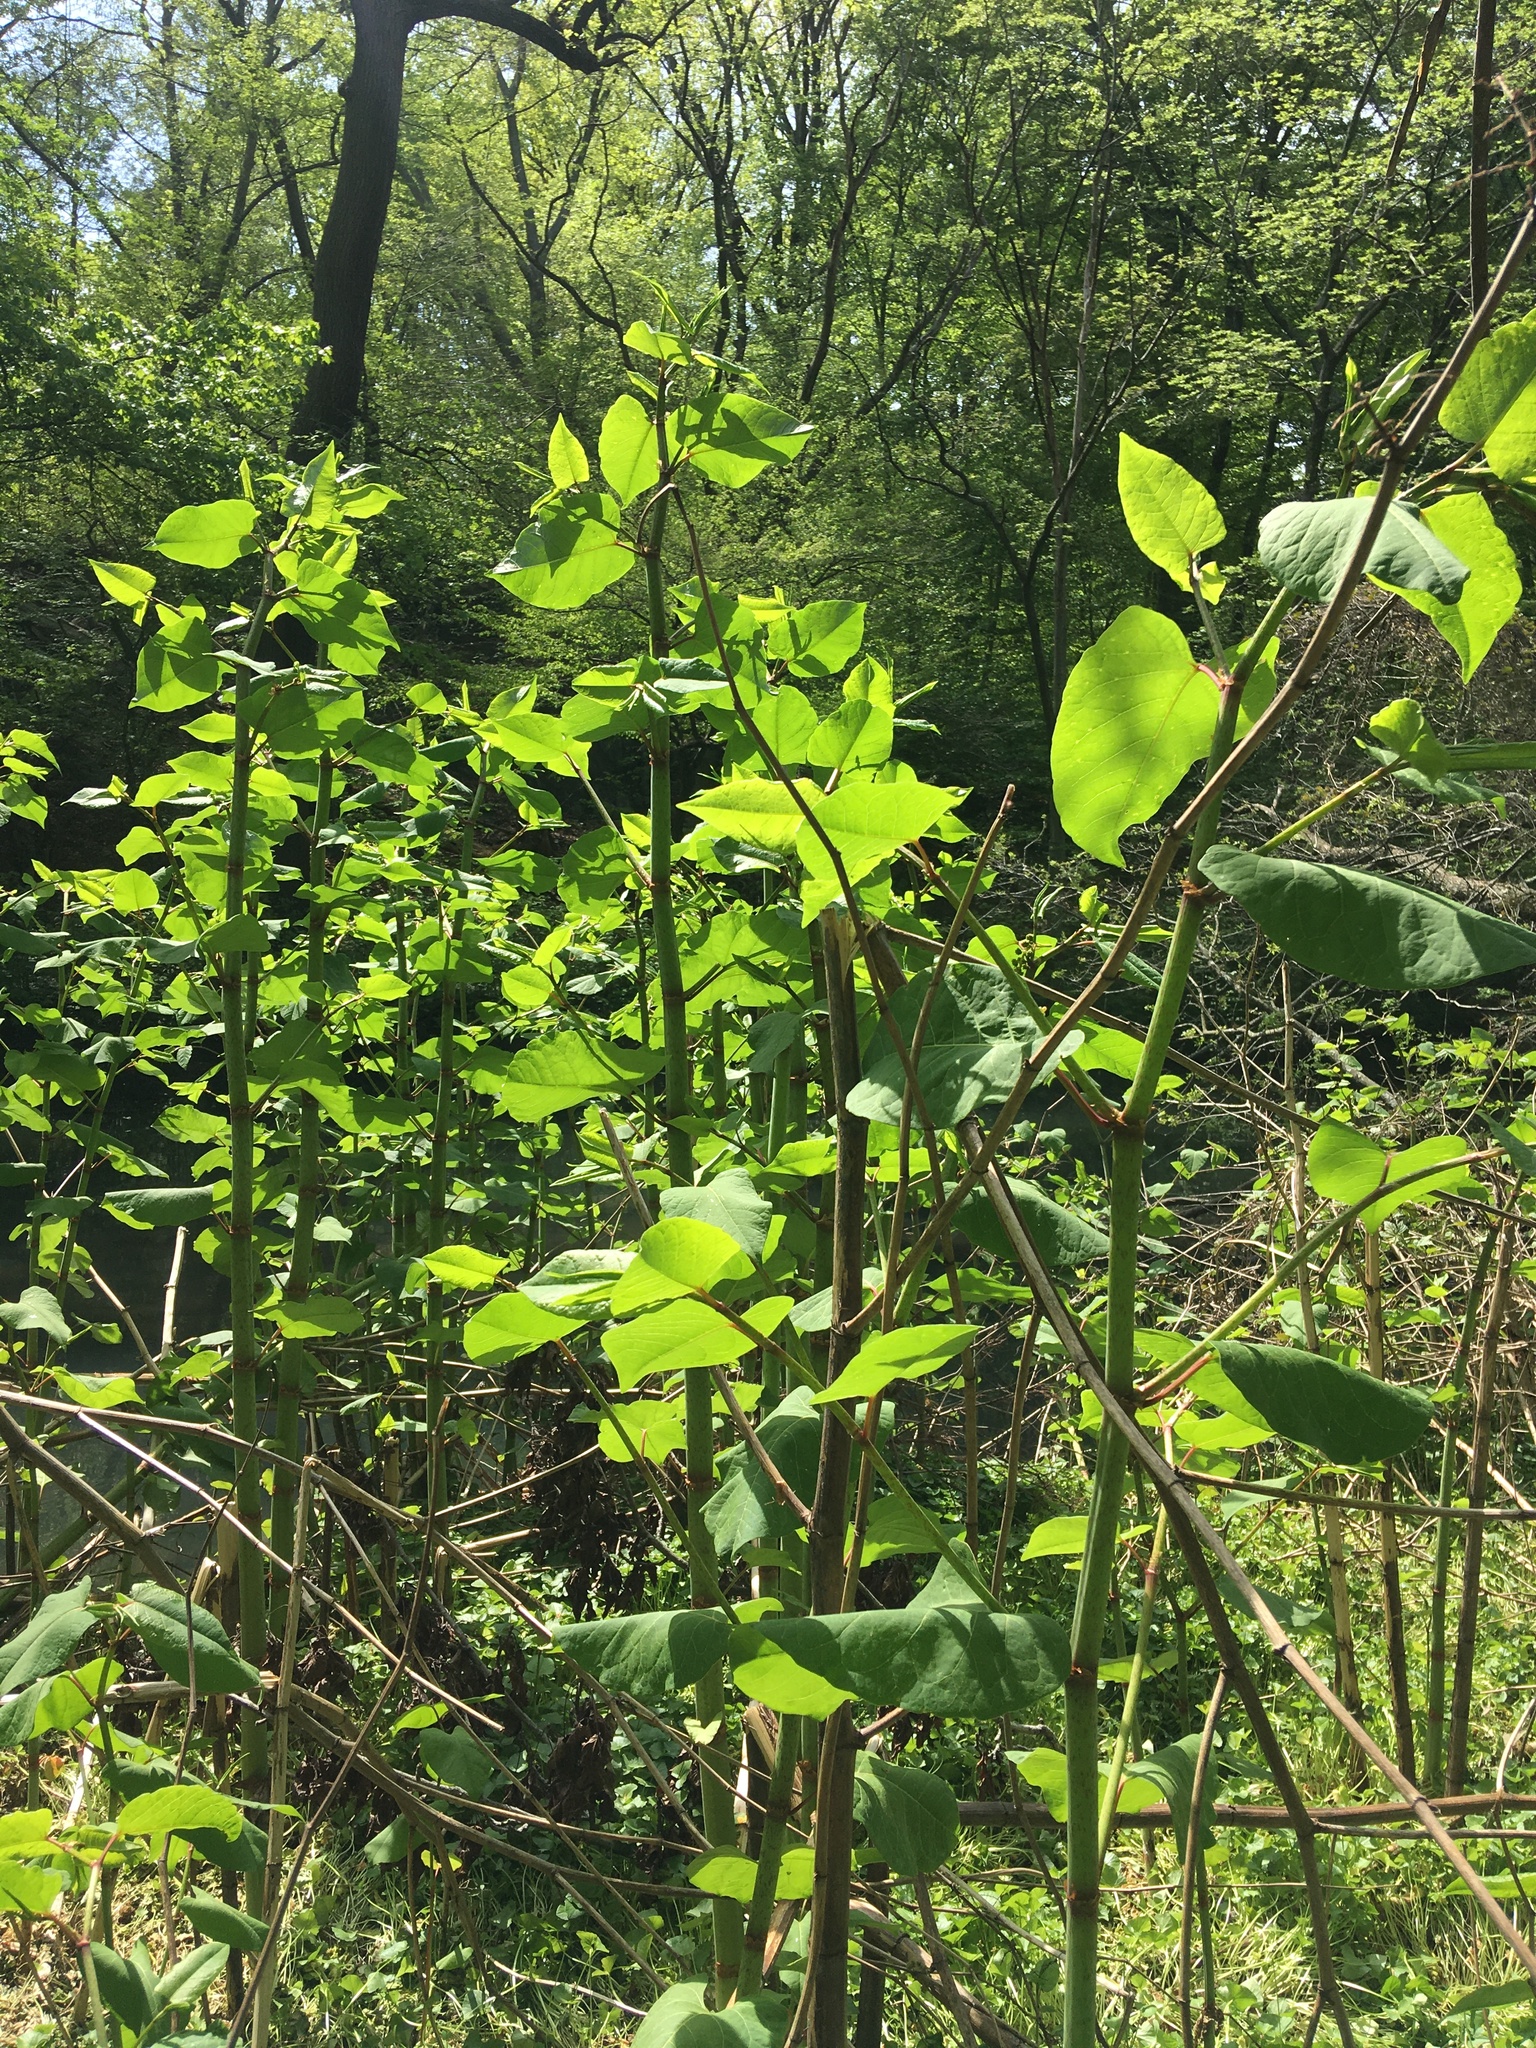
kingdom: Plantae
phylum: Tracheophyta
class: Magnoliopsida
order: Caryophyllales
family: Polygonaceae
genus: Reynoutria
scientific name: Reynoutria japonica
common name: Japanese knotweed
